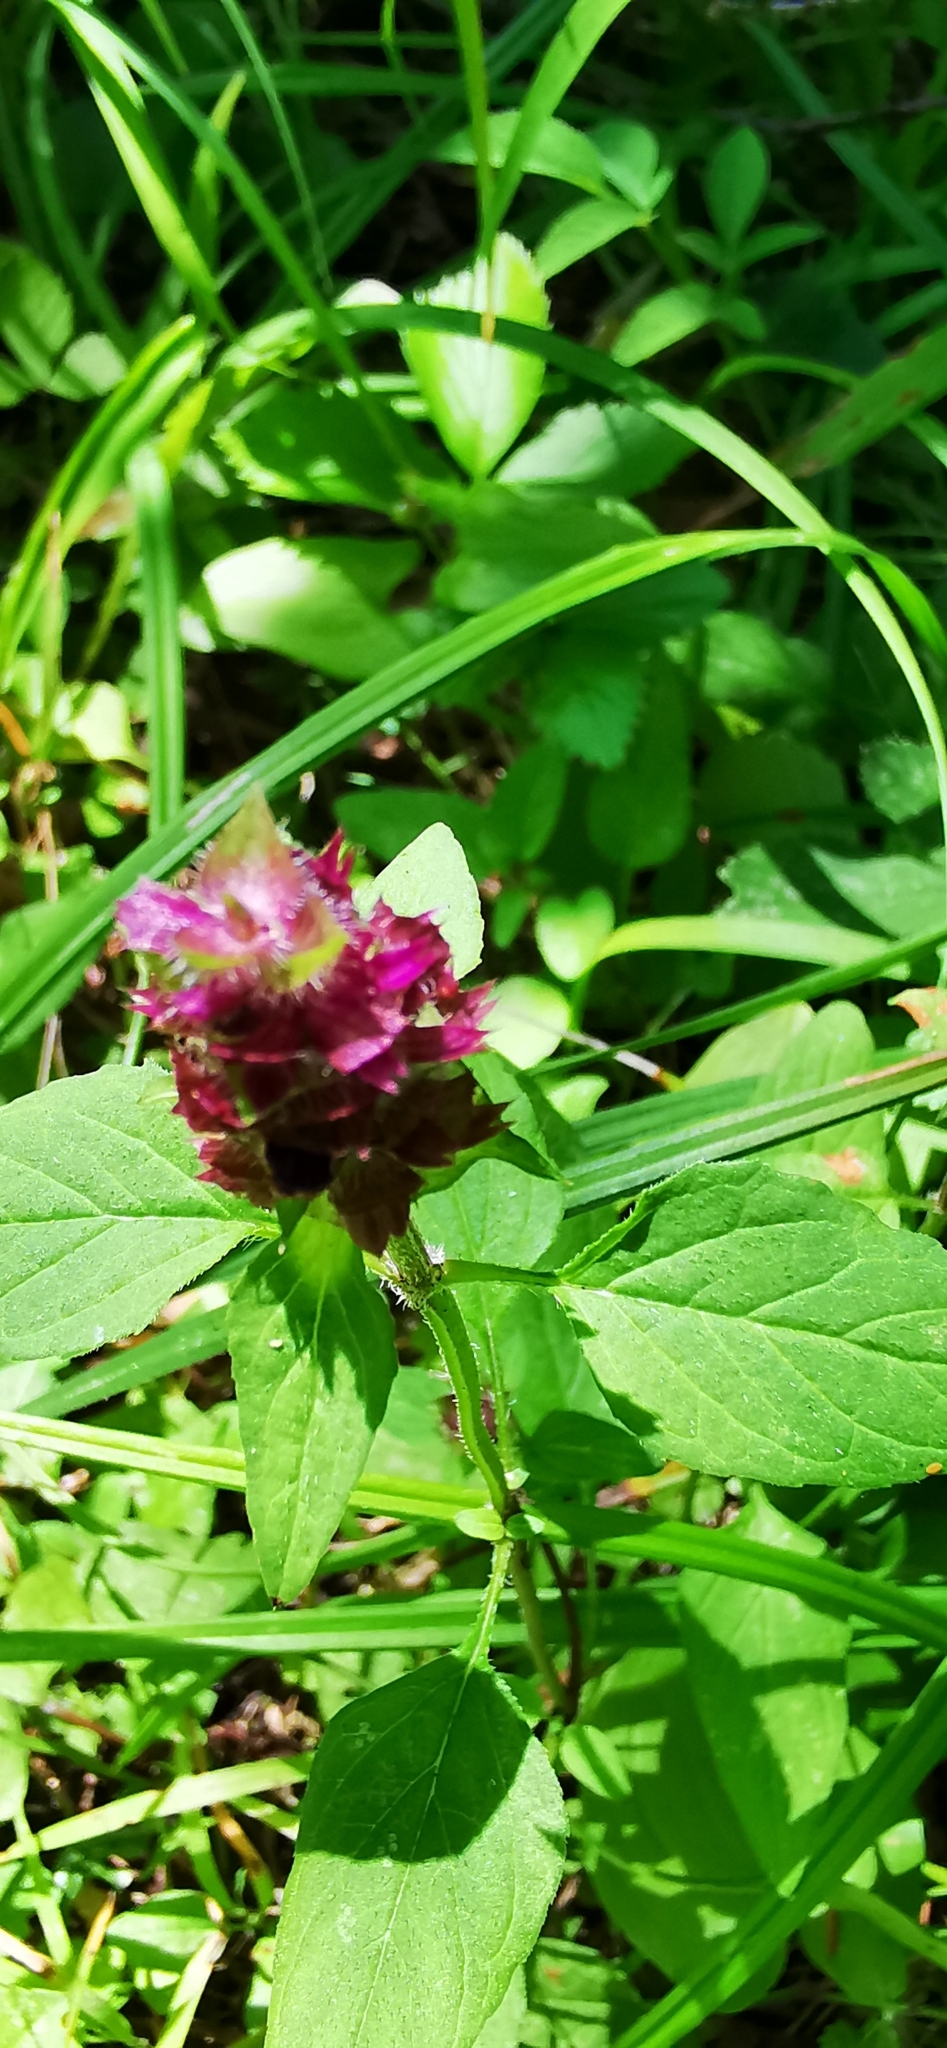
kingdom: Plantae
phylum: Tracheophyta
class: Magnoliopsida
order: Lamiales
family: Lamiaceae
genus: Prunella
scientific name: Prunella vulgaris
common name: Heal-all
